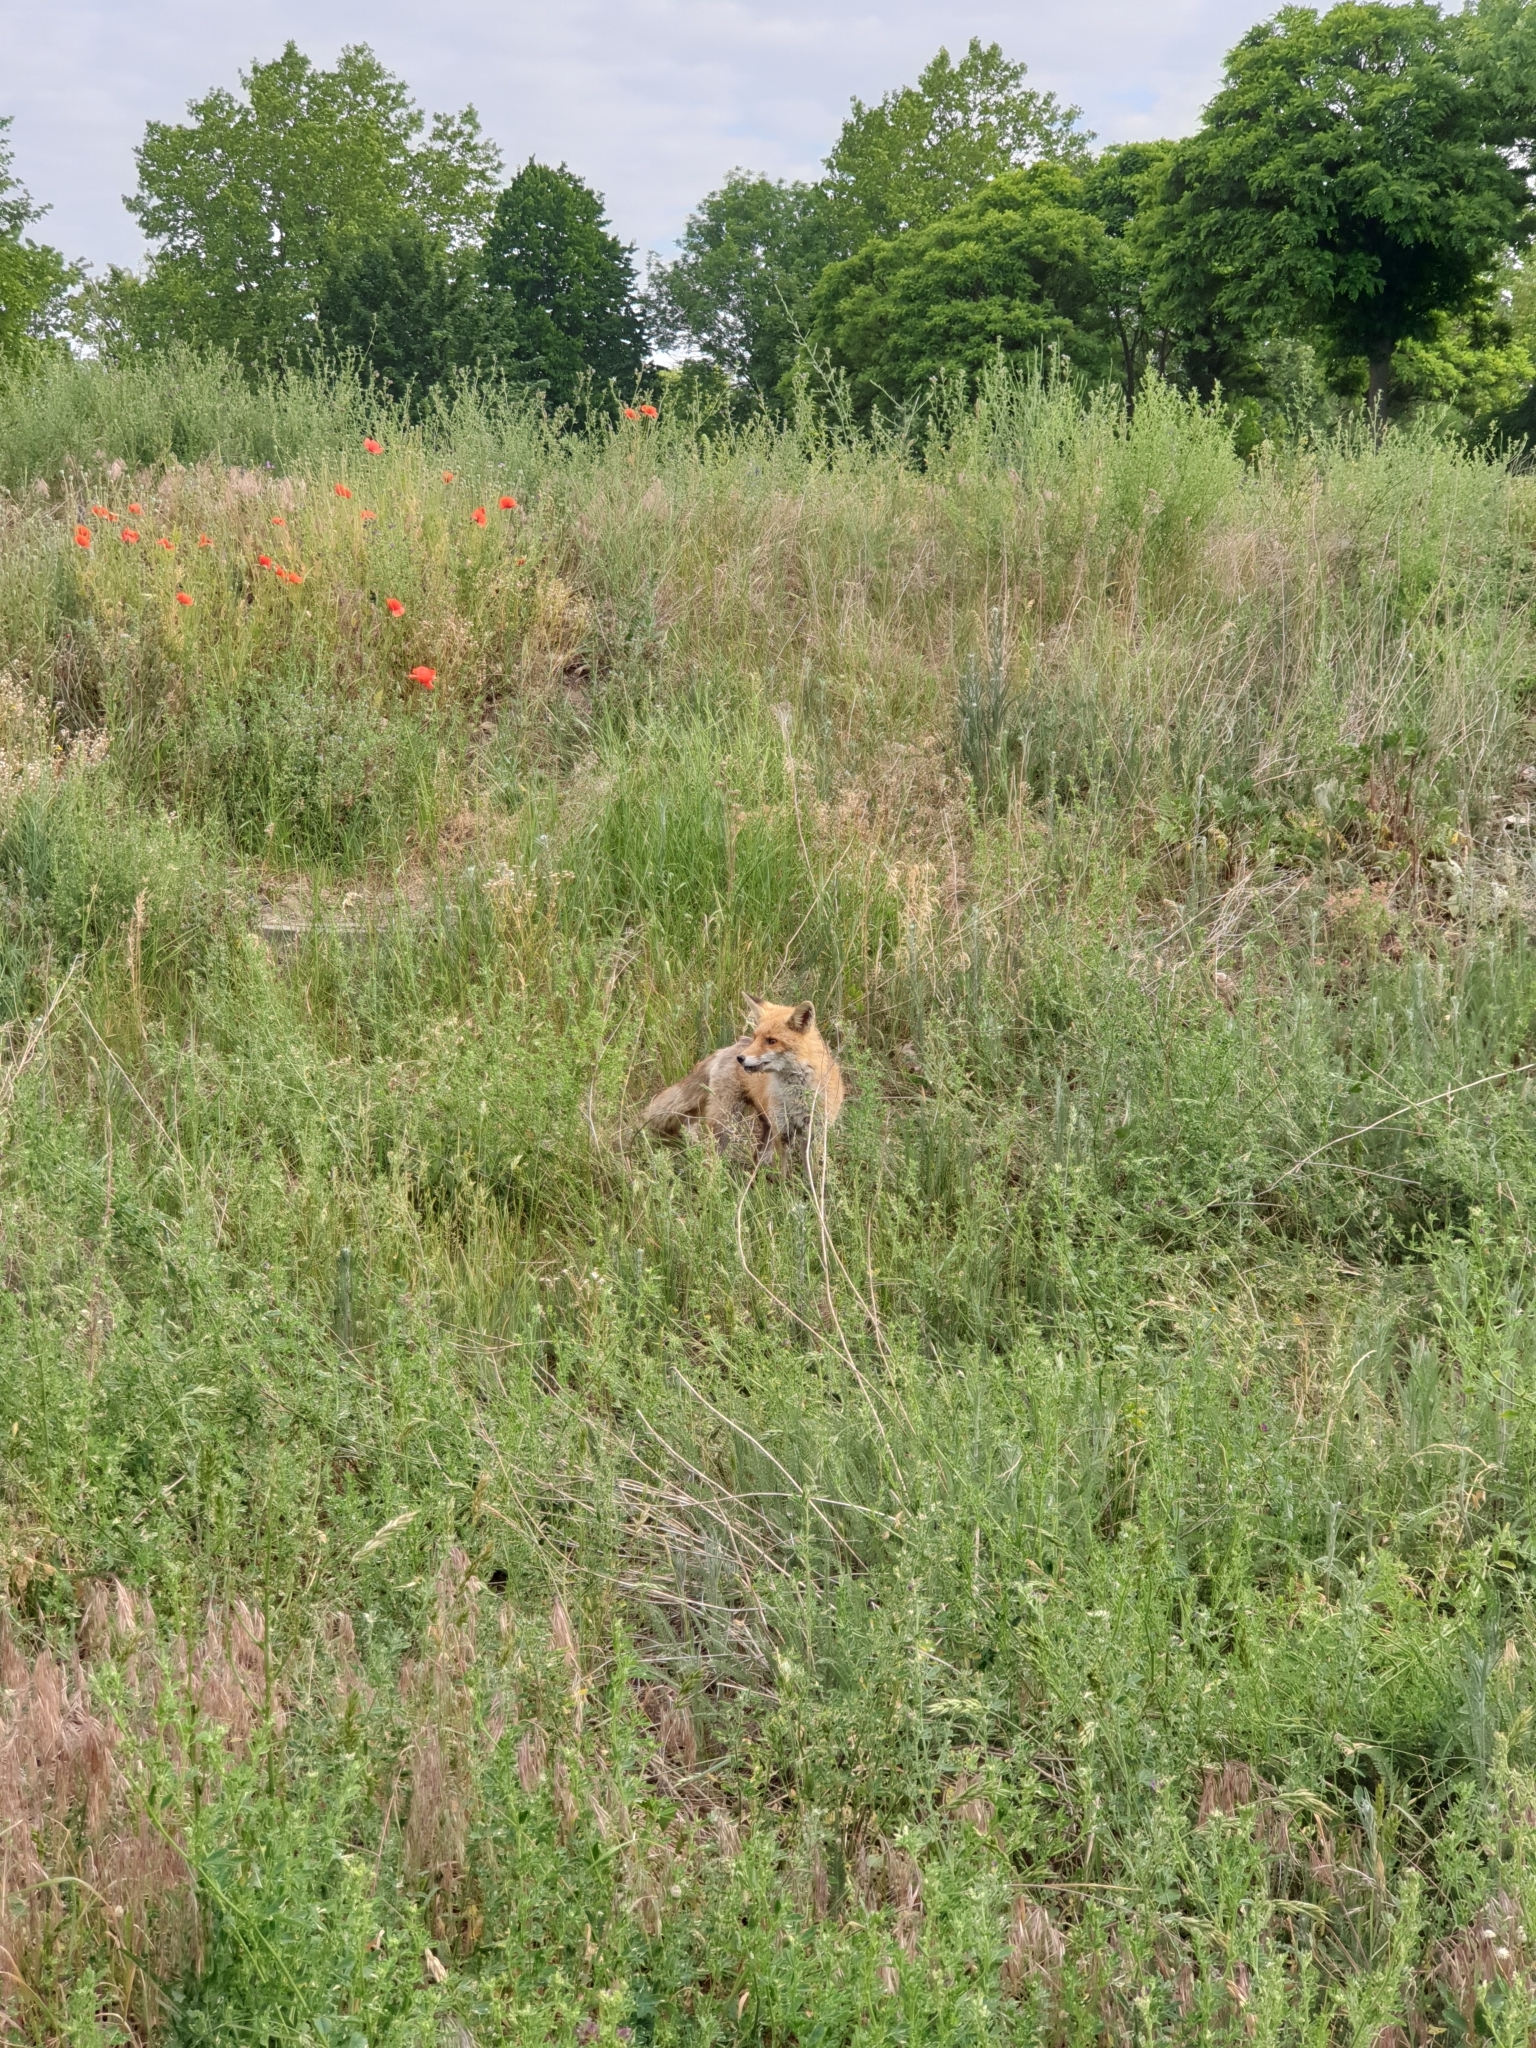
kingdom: Animalia
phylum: Chordata
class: Mammalia
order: Carnivora
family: Canidae
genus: Vulpes
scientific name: Vulpes vulpes
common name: Red fox
